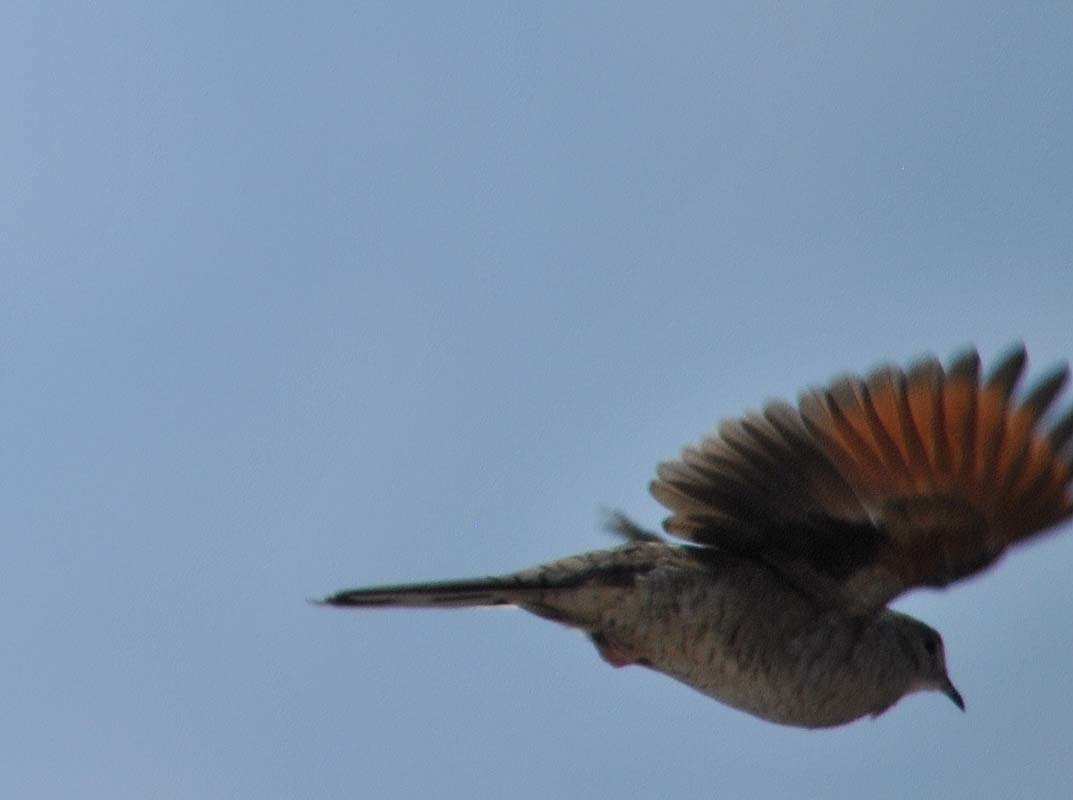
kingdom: Animalia
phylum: Chordata
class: Aves
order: Columbiformes
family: Columbidae
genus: Columbina
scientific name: Columbina inca
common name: Inca dove
